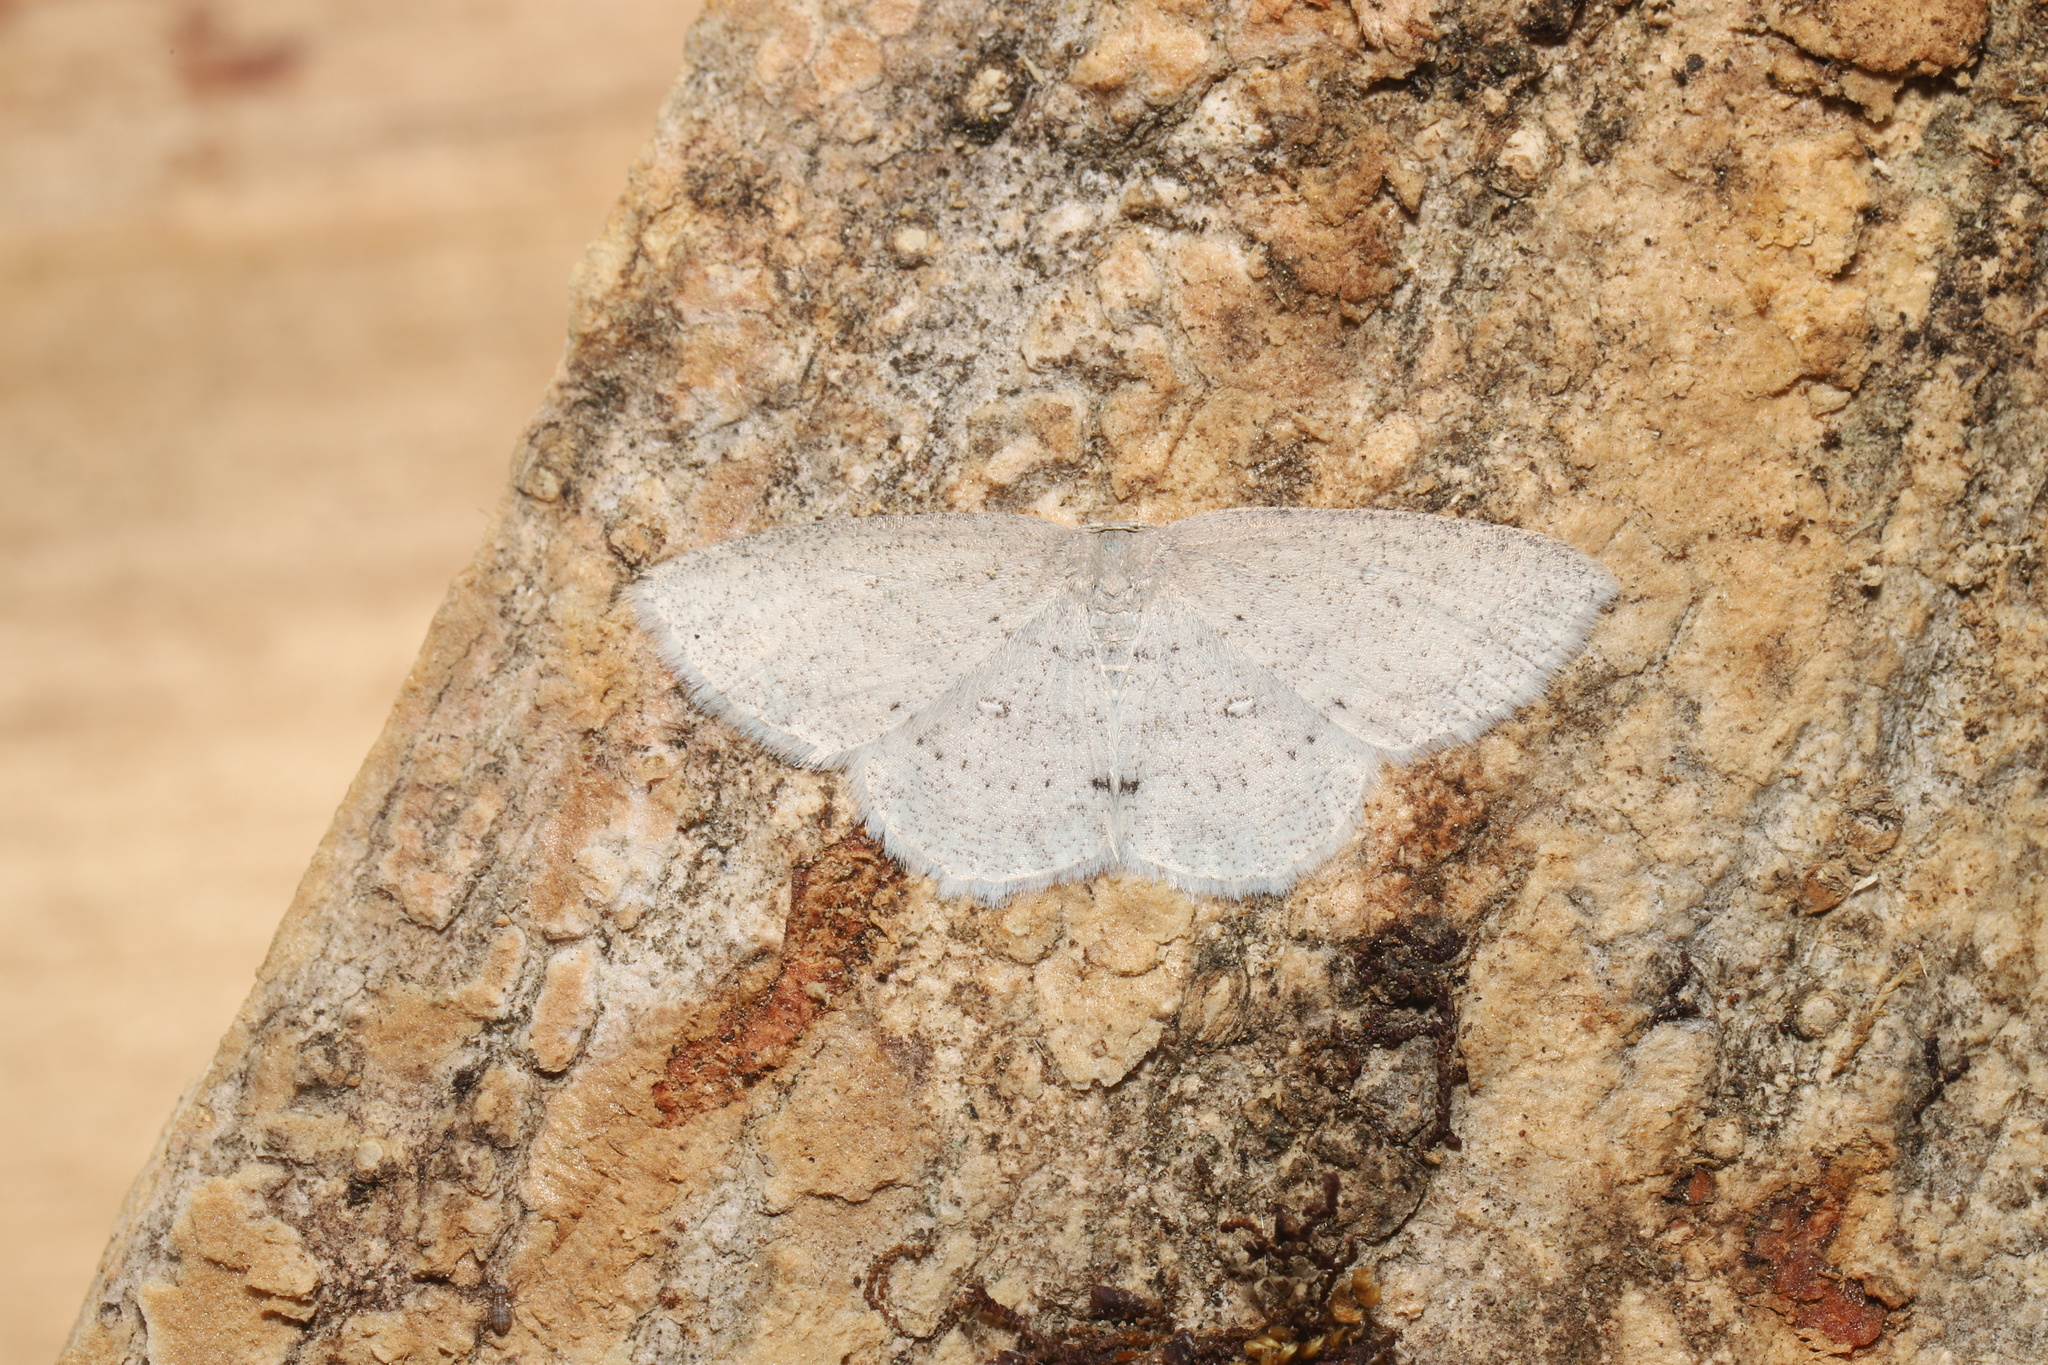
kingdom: Animalia
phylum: Arthropoda
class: Insecta
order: Lepidoptera
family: Geometridae
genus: Cyclophora
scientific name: Cyclophora pendulinaria
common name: Sweet fern geometer
